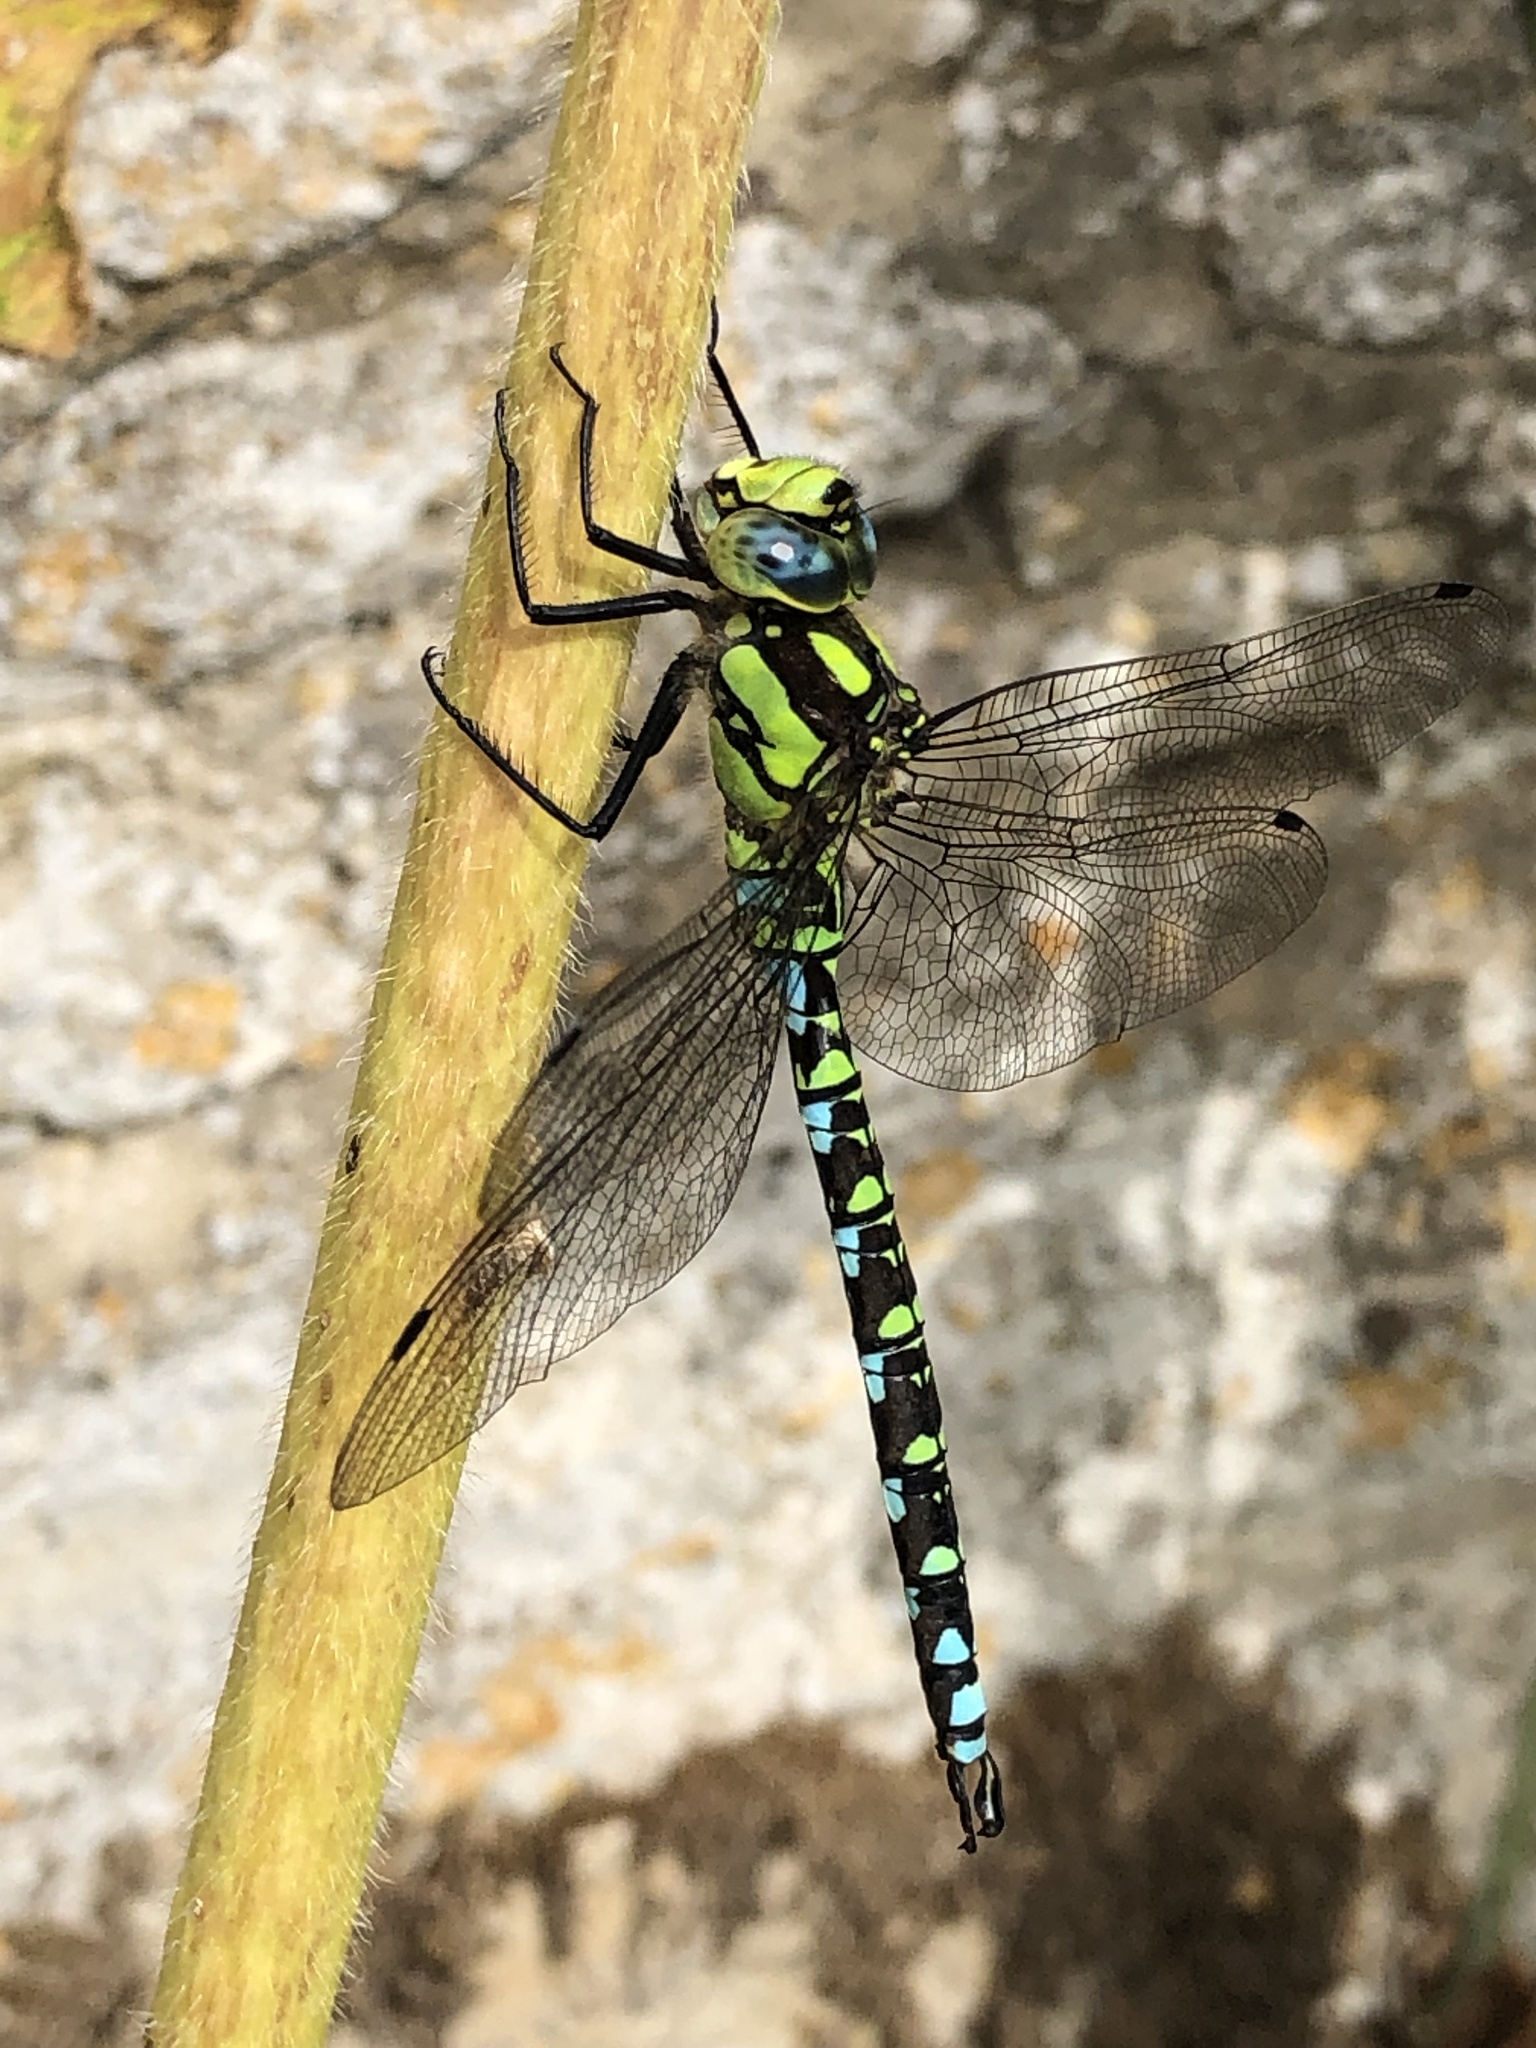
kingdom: Animalia
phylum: Arthropoda
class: Insecta
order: Odonata
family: Aeshnidae
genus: Aeshna
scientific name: Aeshna cyanea
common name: Southern hawker
